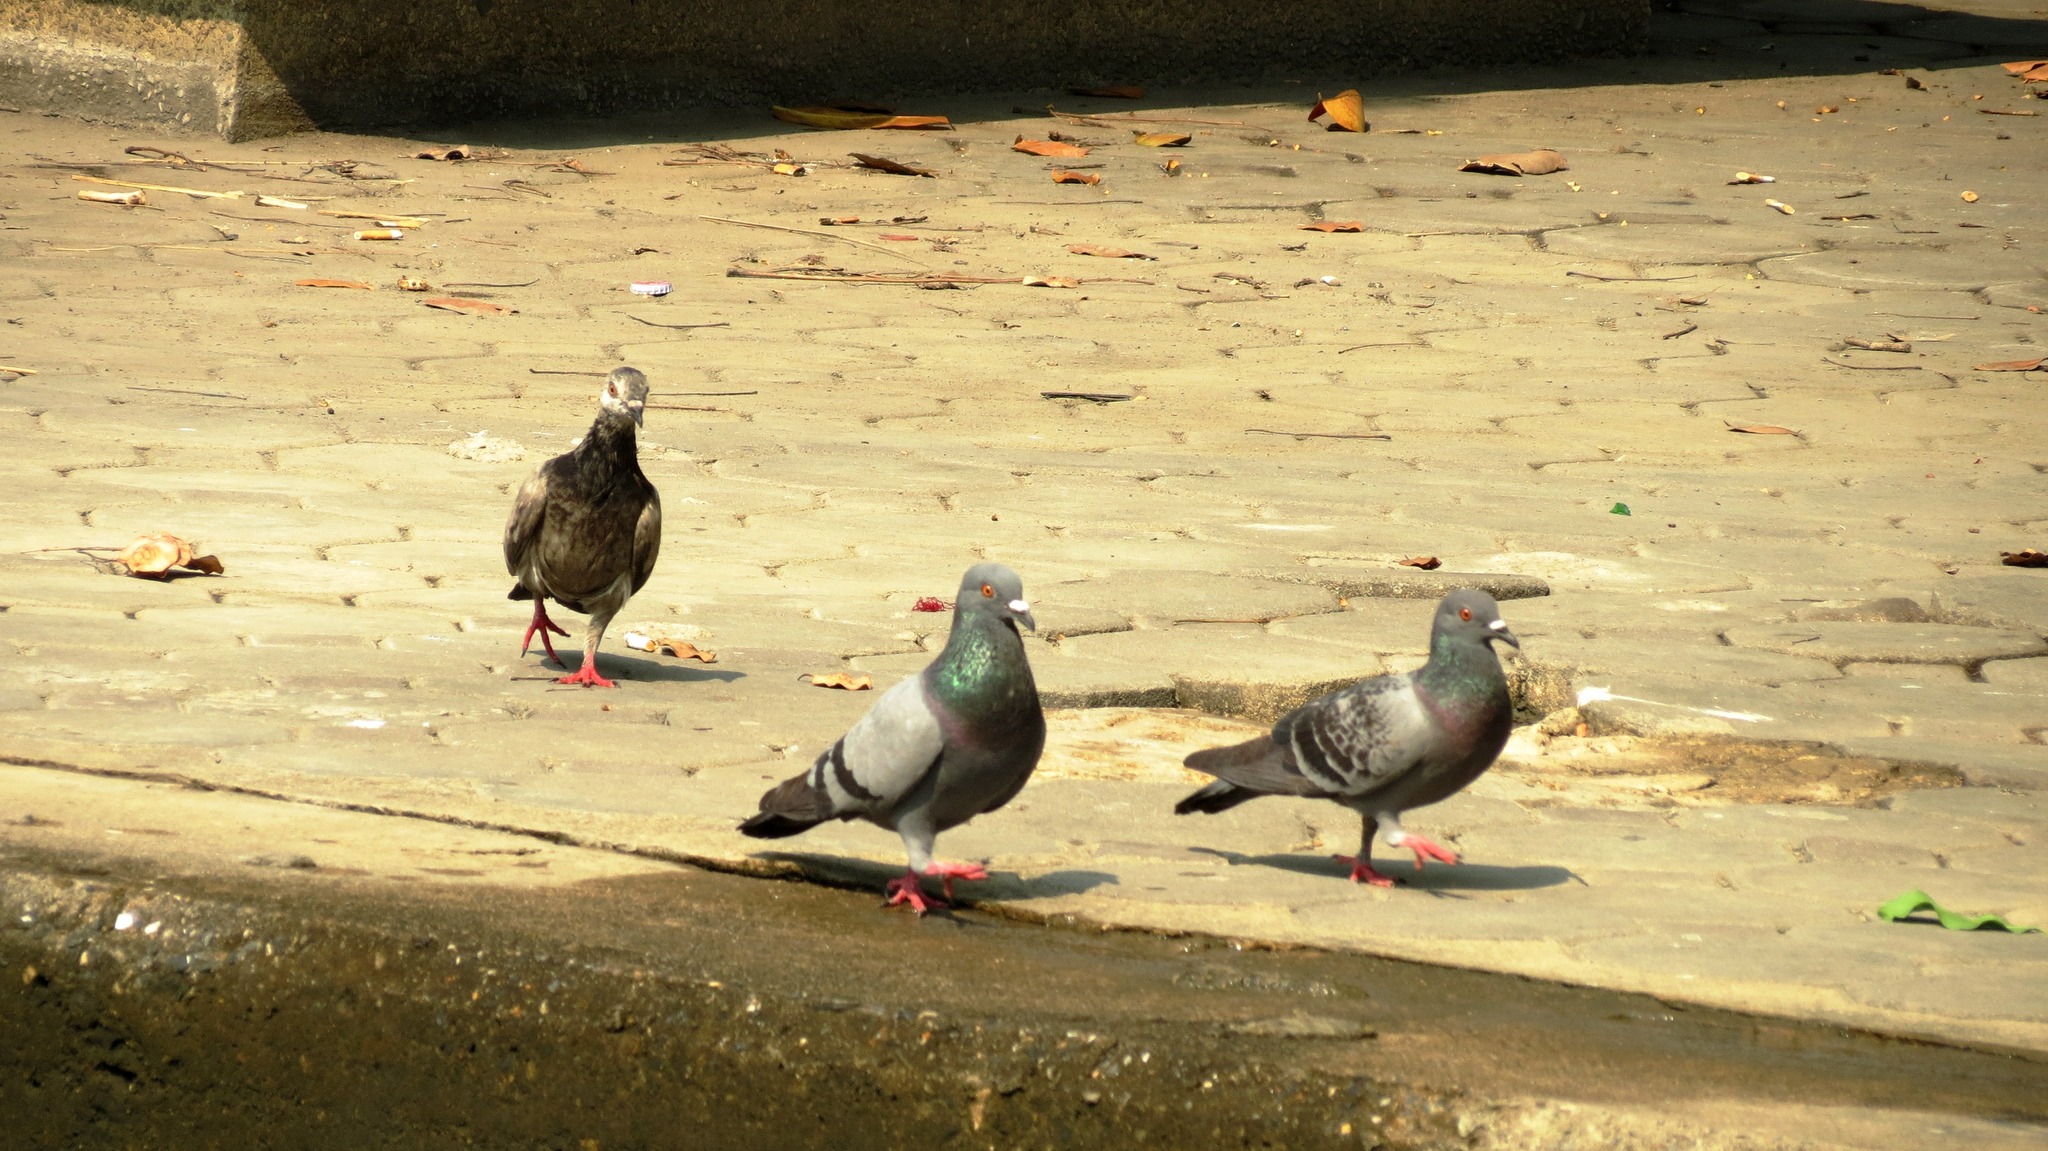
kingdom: Animalia
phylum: Chordata
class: Aves
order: Columbiformes
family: Columbidae
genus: Columba
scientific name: Columba livia
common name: Rock pigeon
